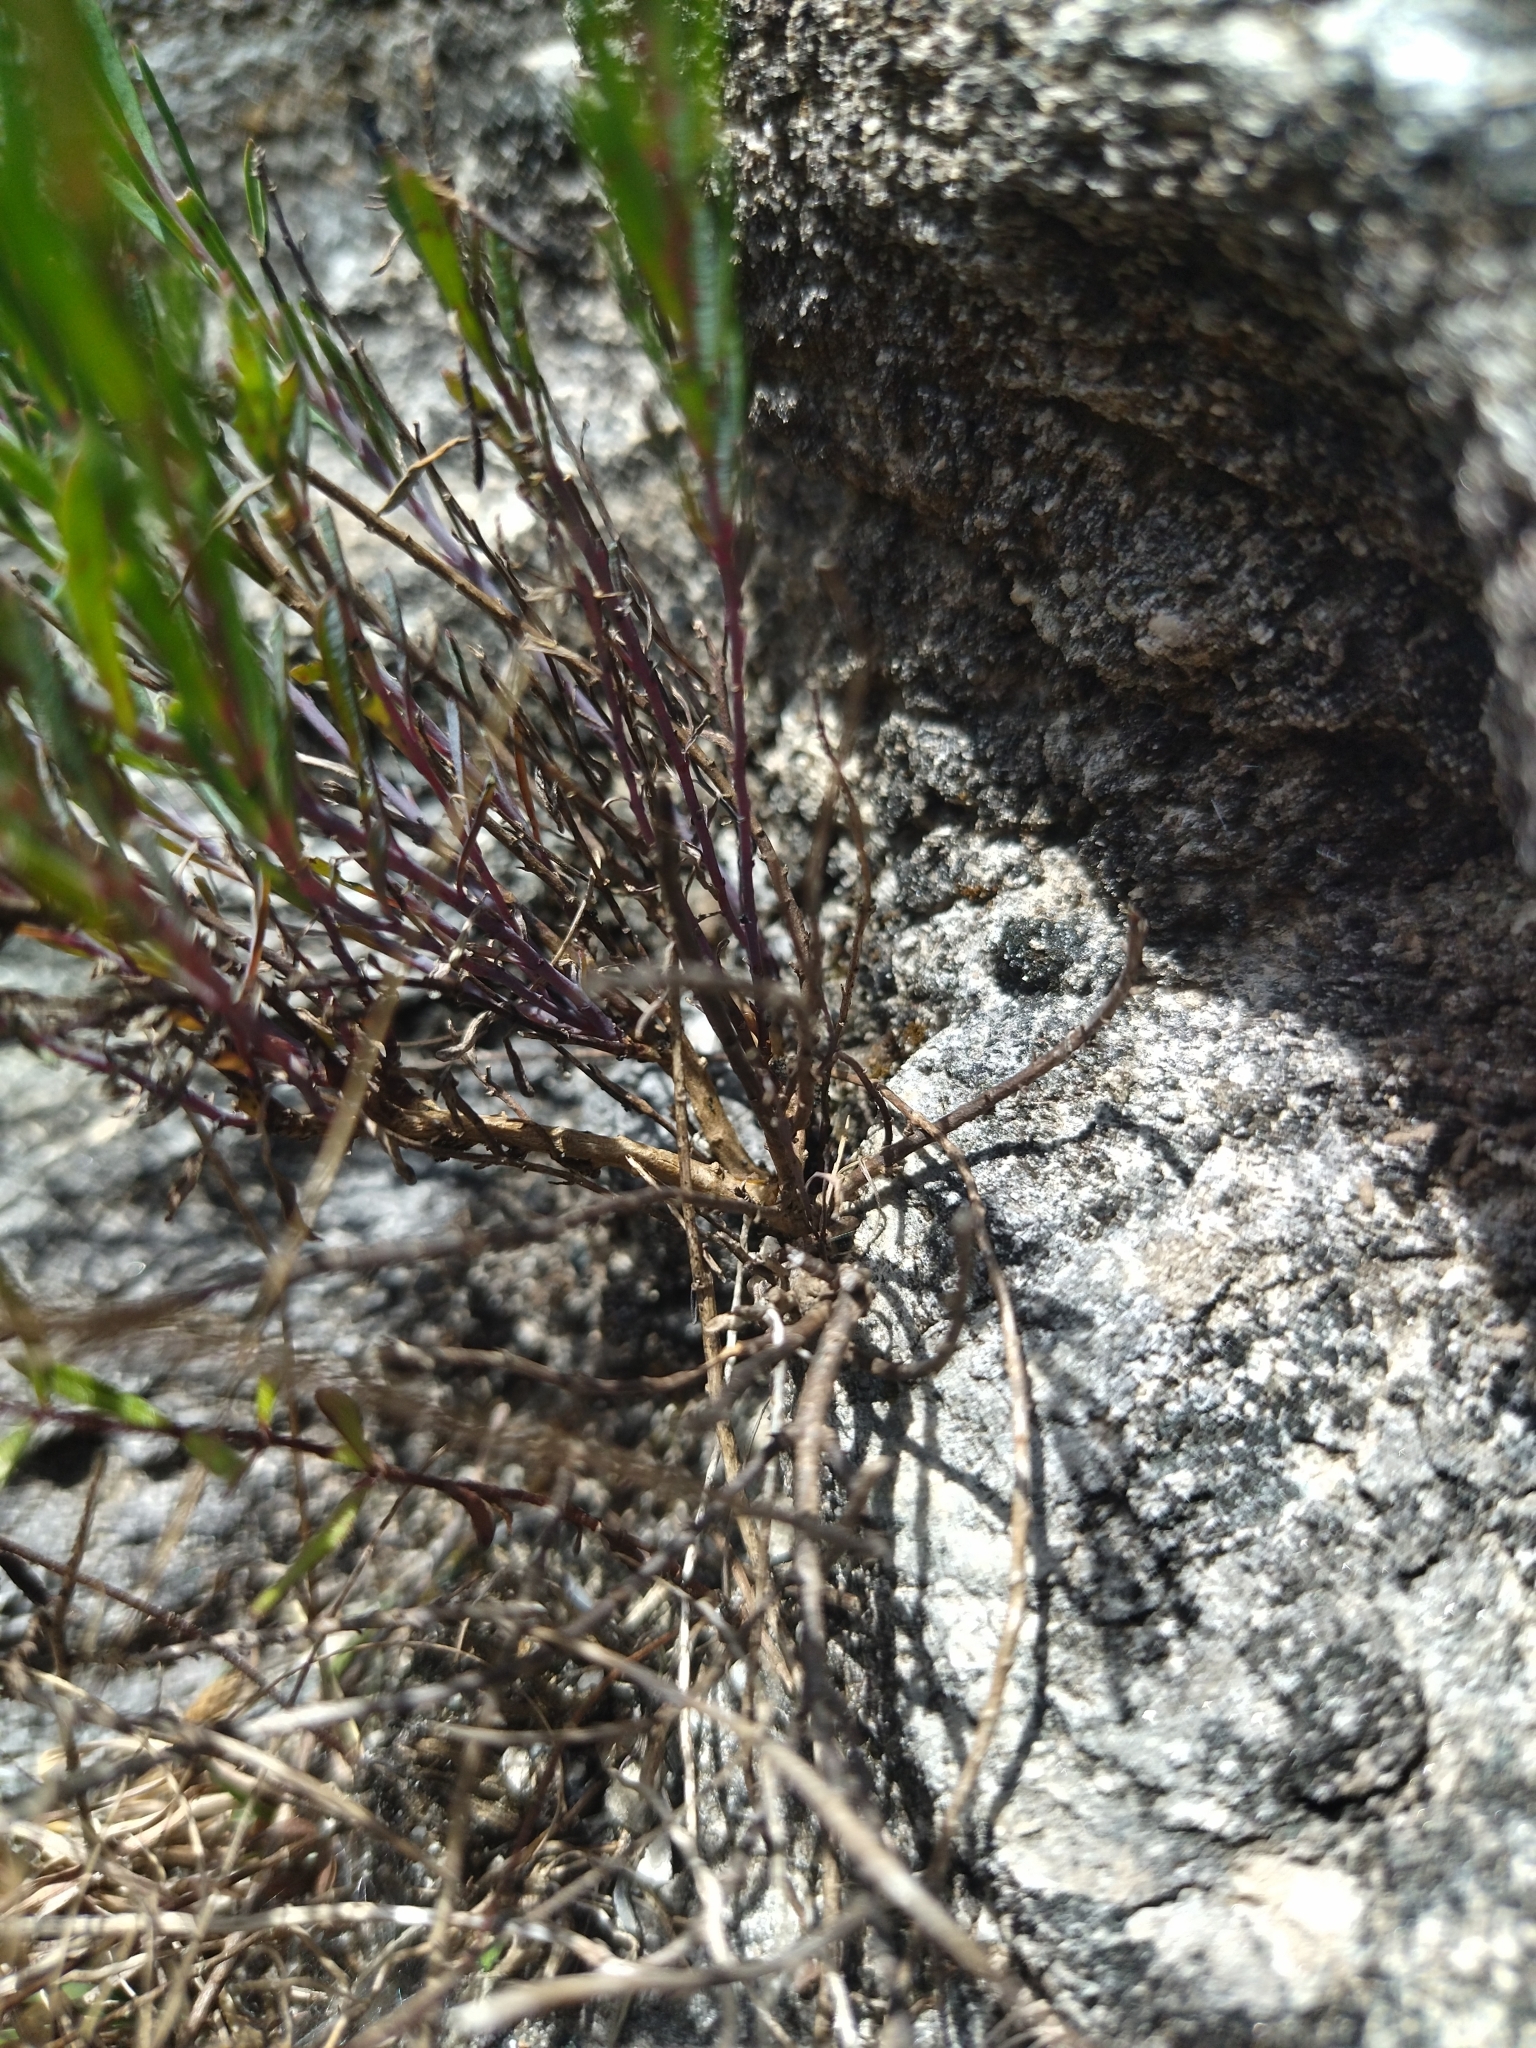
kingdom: Plantae
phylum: Tracheophyta
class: Magnoliopsida
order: Asterales
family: Asteraceae
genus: Porophyllum
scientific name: Porophyllum linifolium
